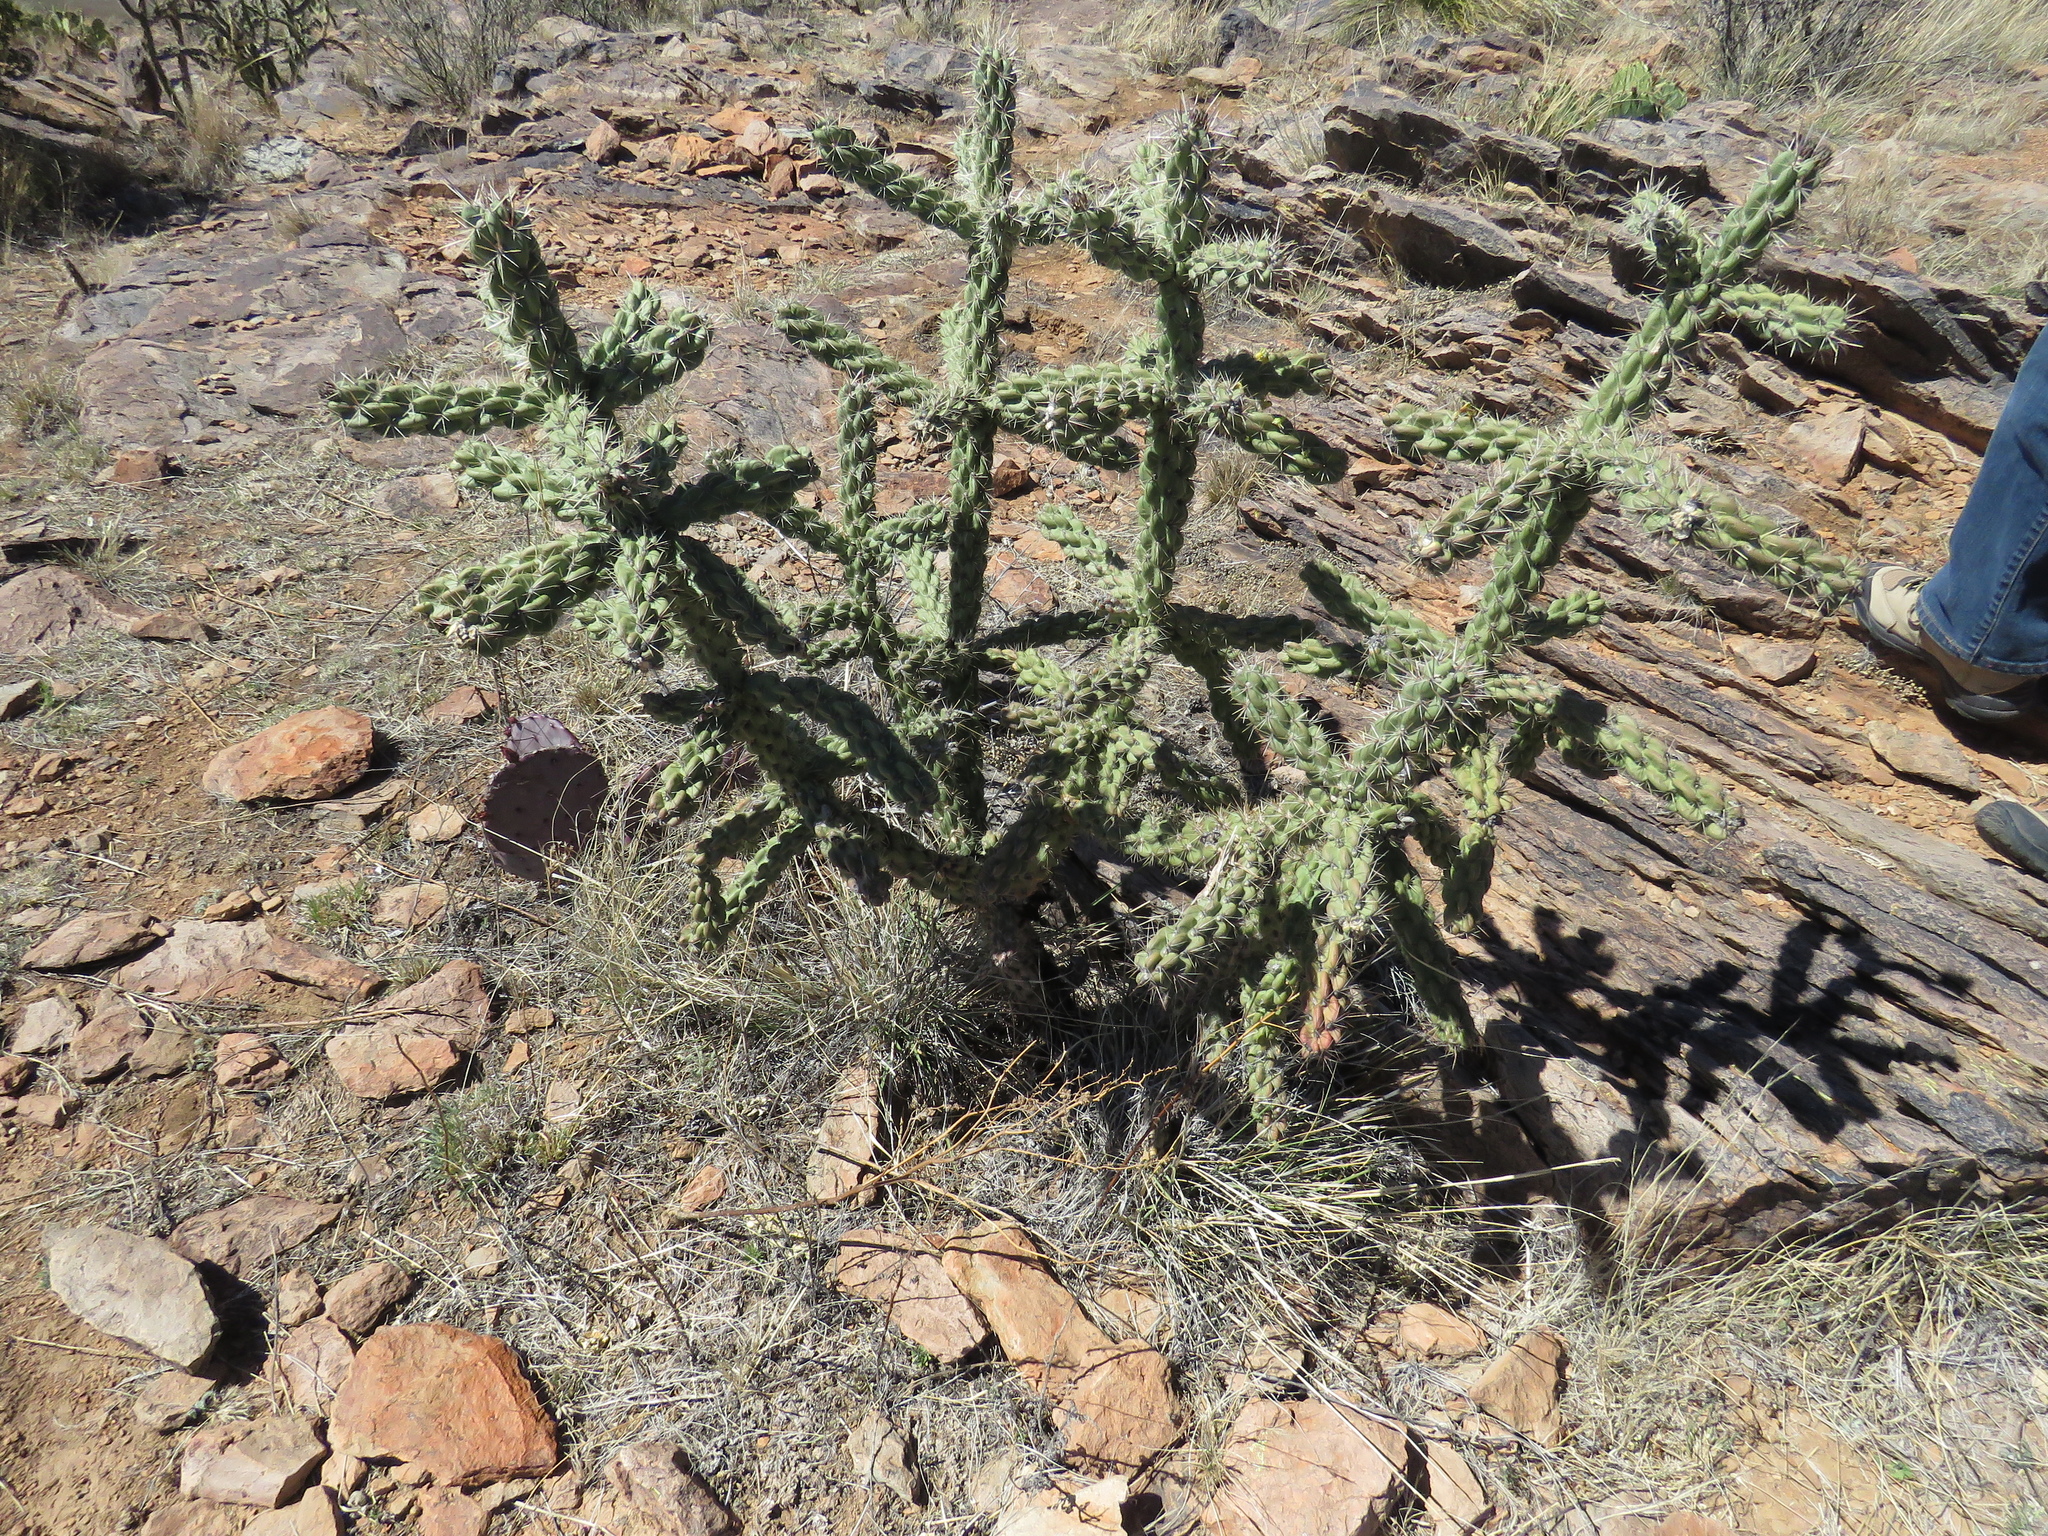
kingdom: Plantae
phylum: Tracheophyta
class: Magnoliopsida
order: Caryophyllales
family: Cactaceae
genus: Cylindropuntia
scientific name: Cylindropuntia imbricata
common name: Candelabrum cactus
